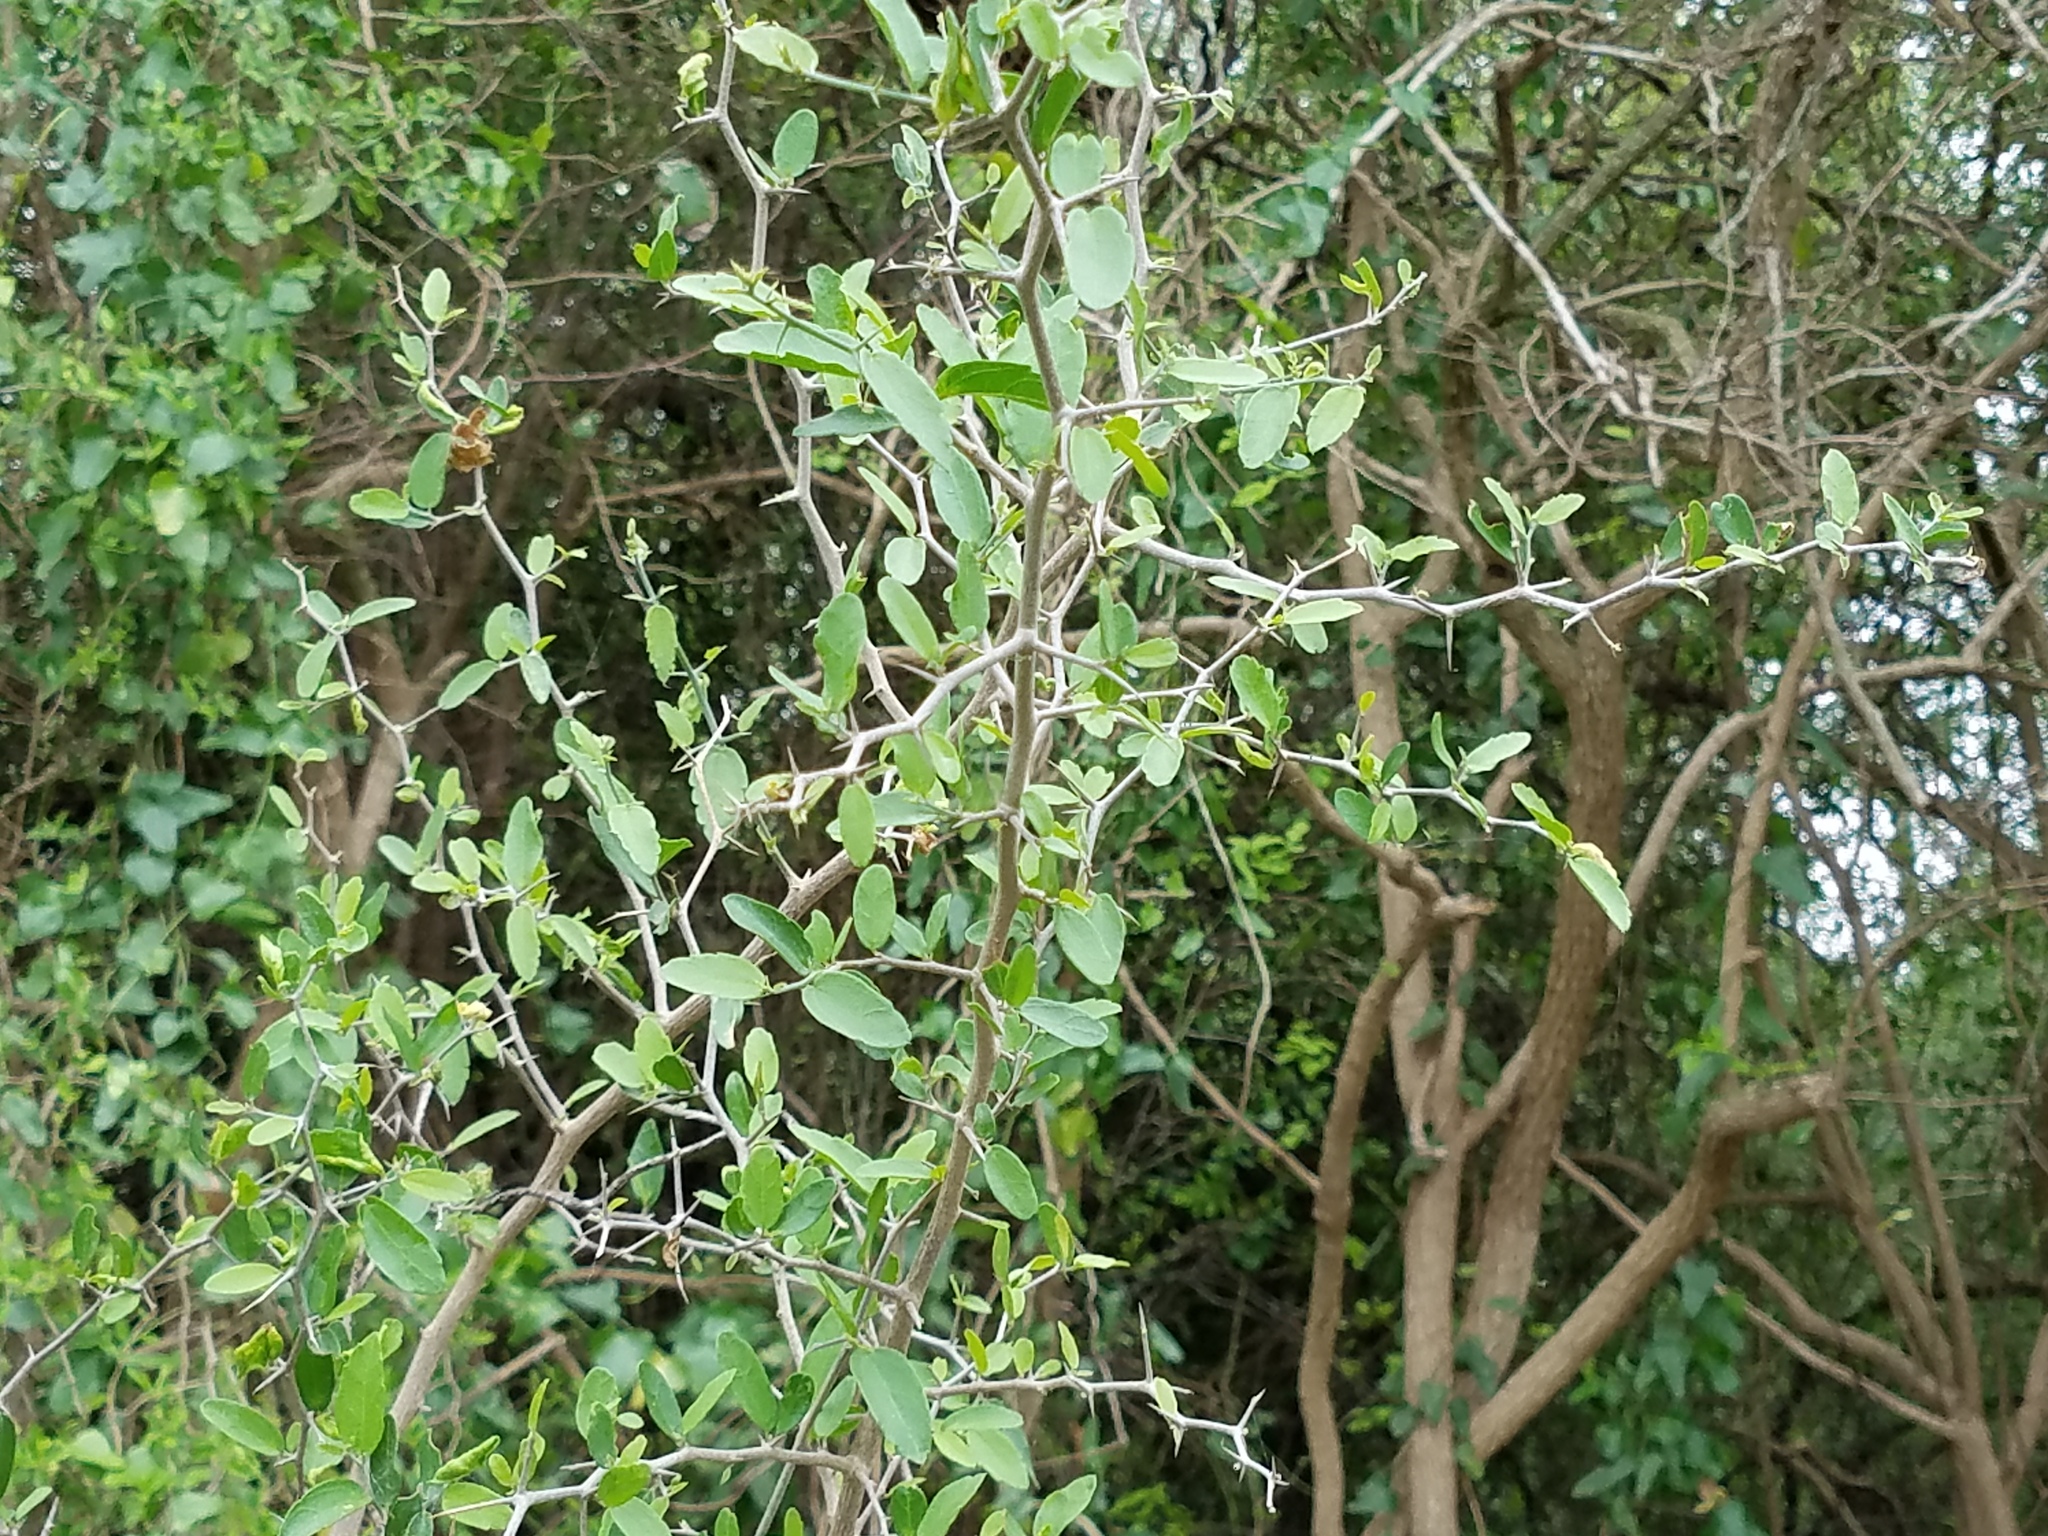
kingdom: Plantae
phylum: Tracheophyta
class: Magnoliopsida
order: Rosales
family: Cannabaceae
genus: Celtis
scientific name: Celtis pallida
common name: Desert hackberry
